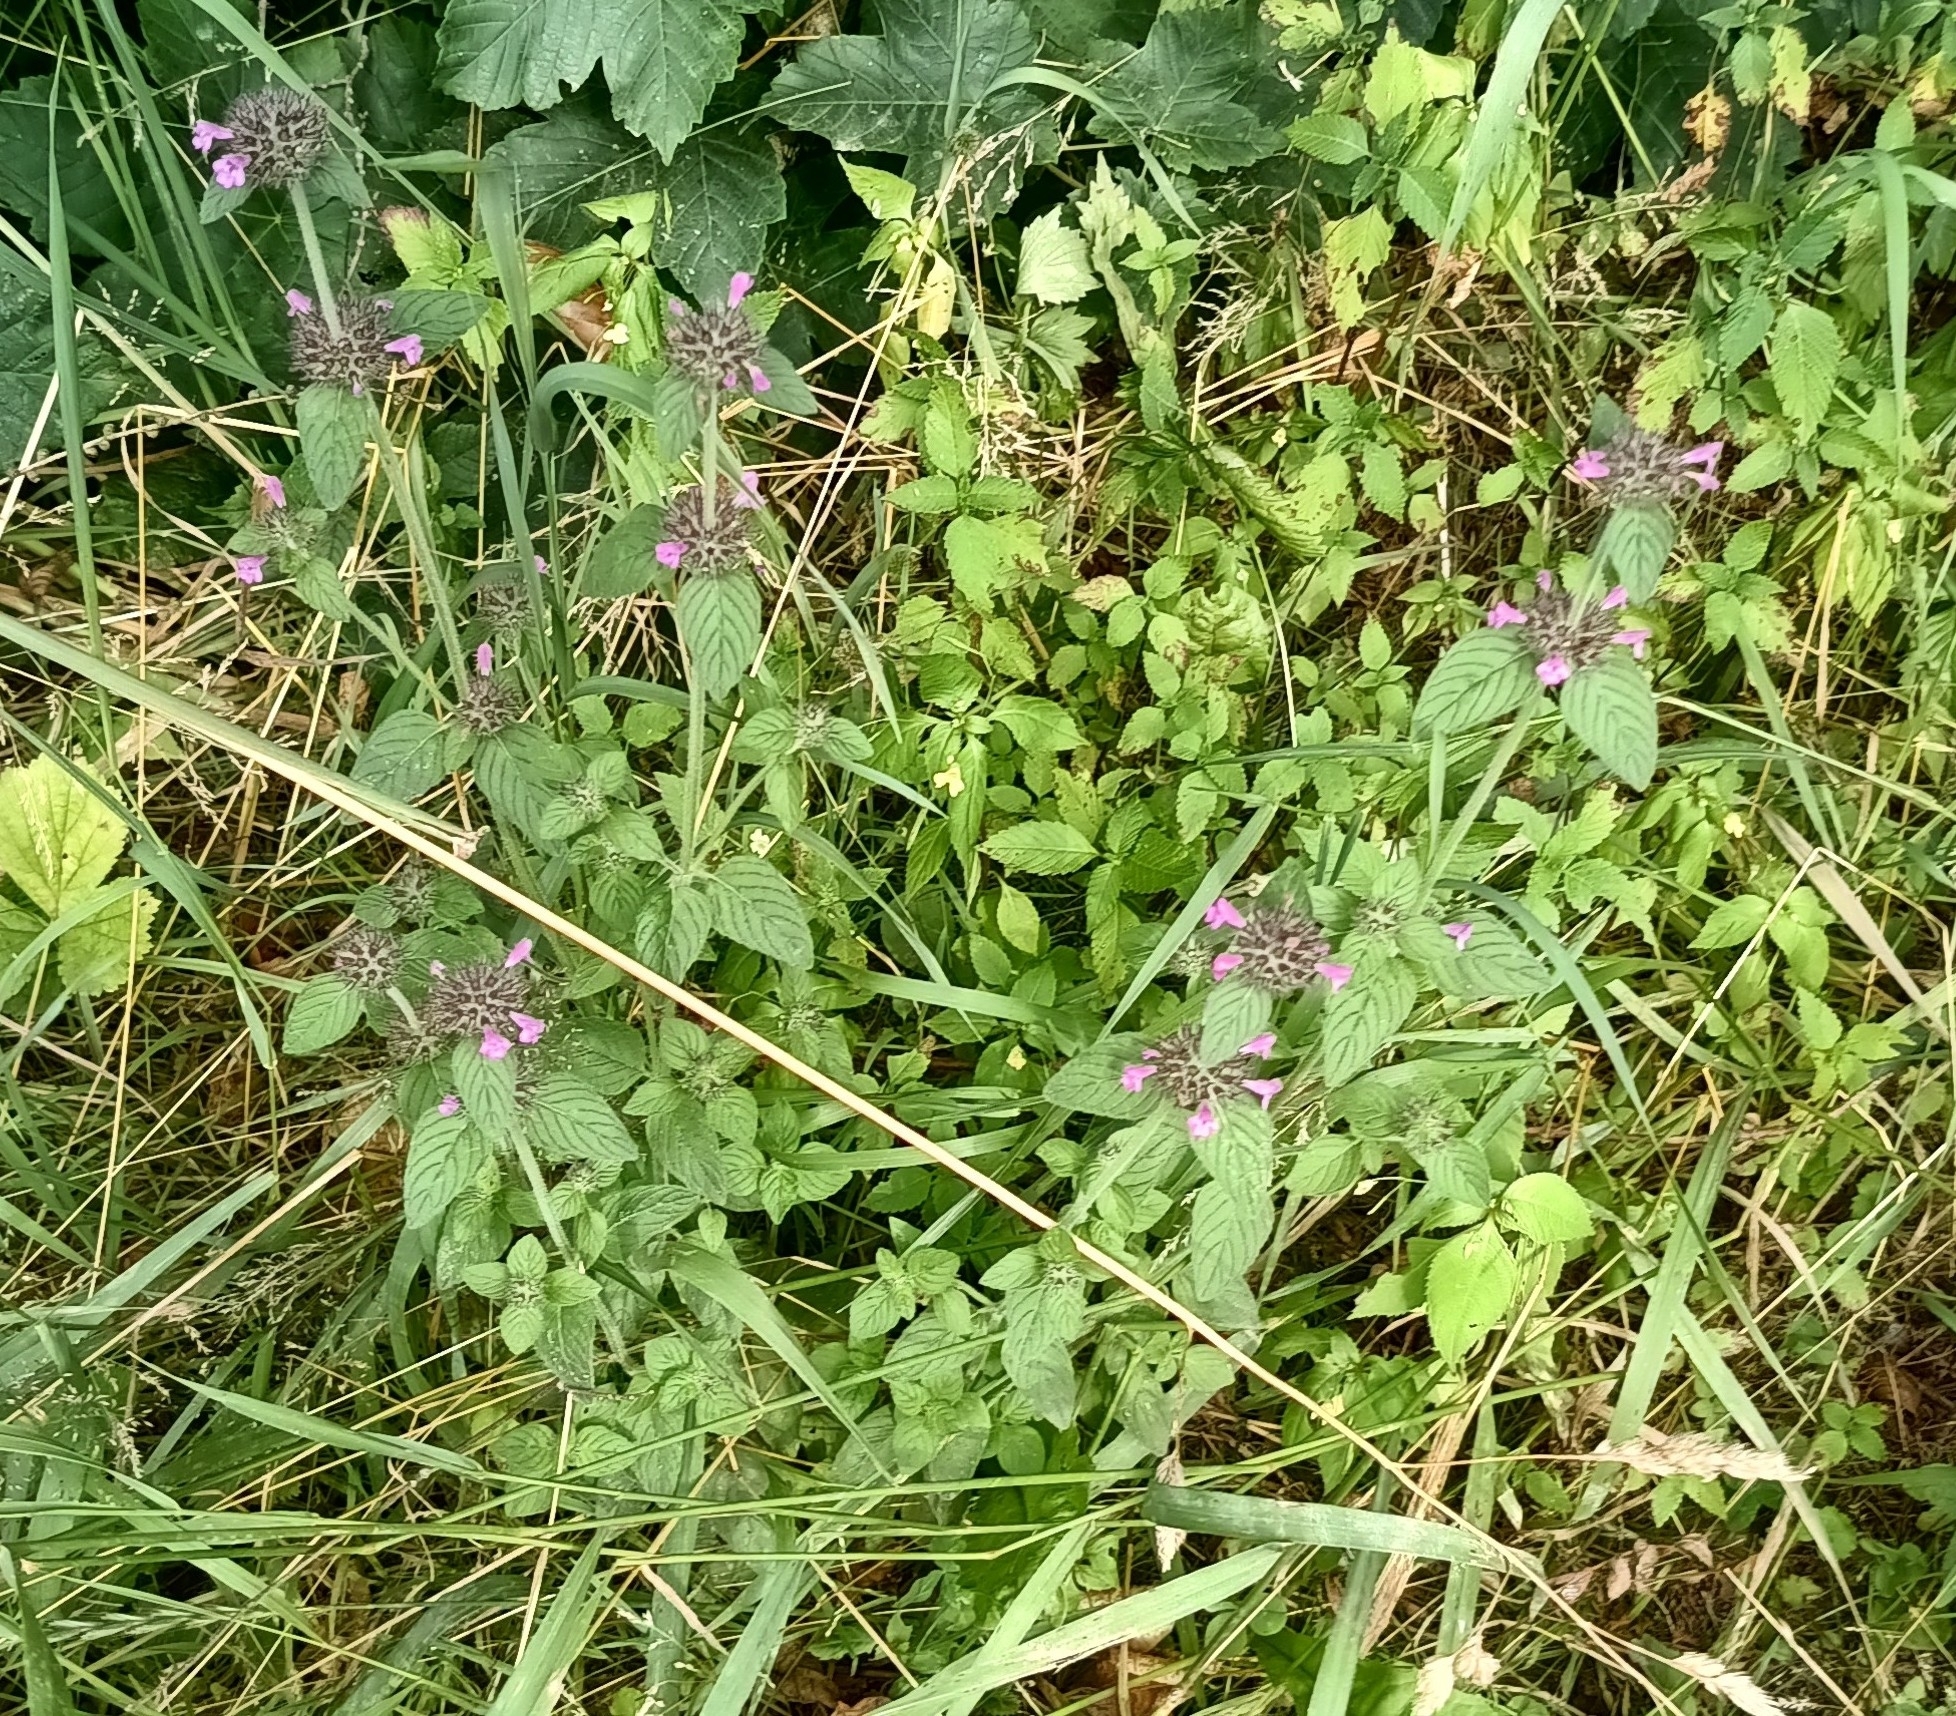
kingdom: Plantae
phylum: Tracheophyta
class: Magnoliopsida
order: Lamiales
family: Lamiaceae
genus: Clinopodium
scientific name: Clinopodium vulgare
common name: Wild basil
